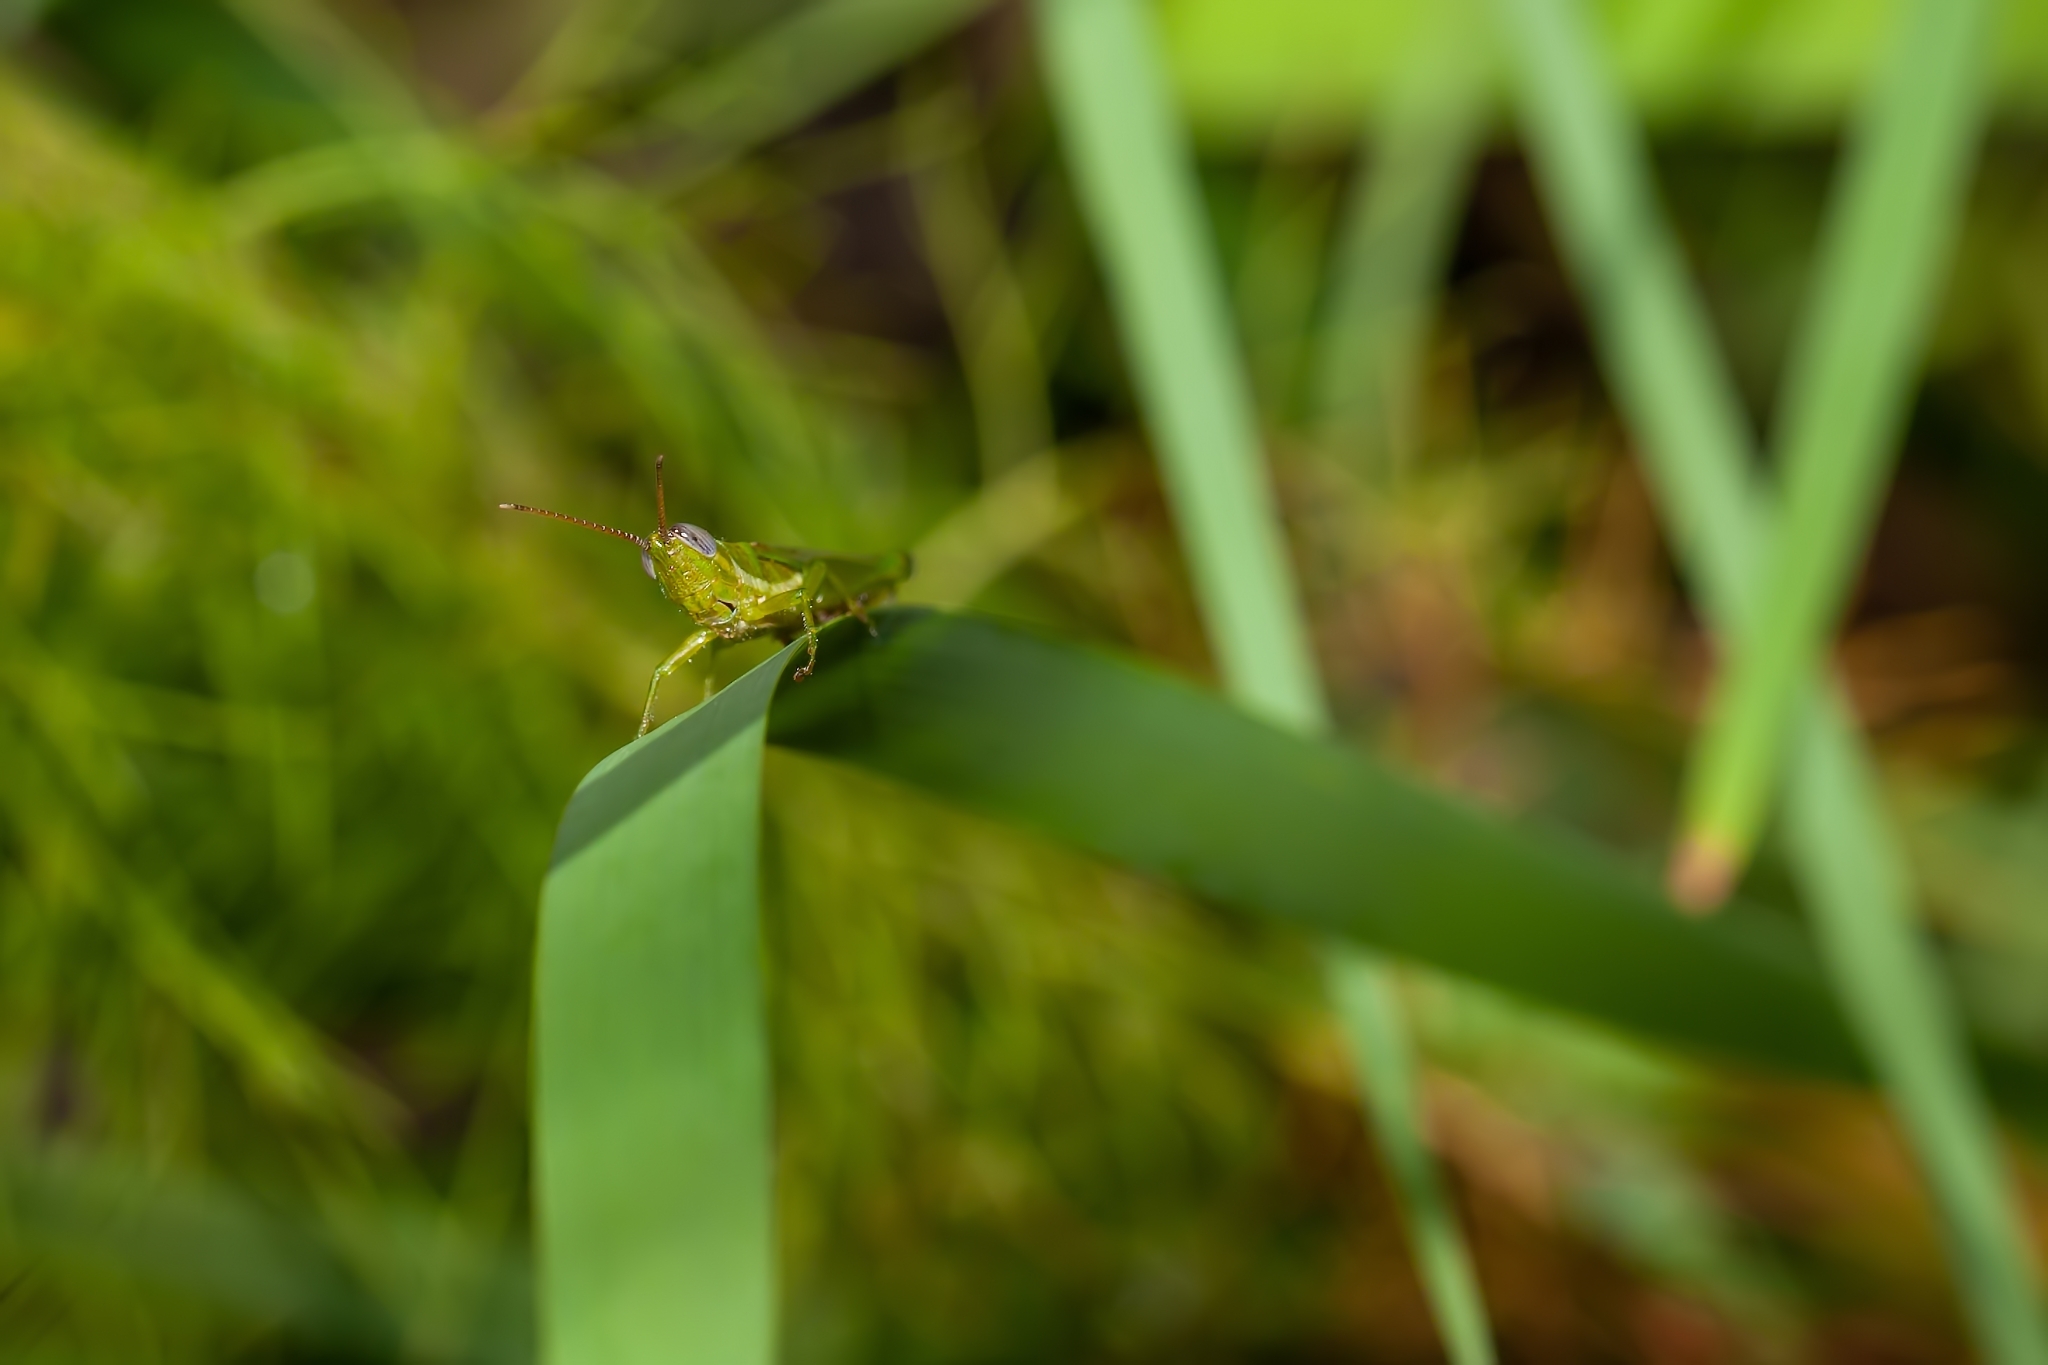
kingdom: Animalia
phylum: Arthropoda
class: Insecta
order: Orthoptera
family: Acrididae
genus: Stenacris
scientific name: Stenacris vitreipennis
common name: Glassy-winged toothpick grasshopper
